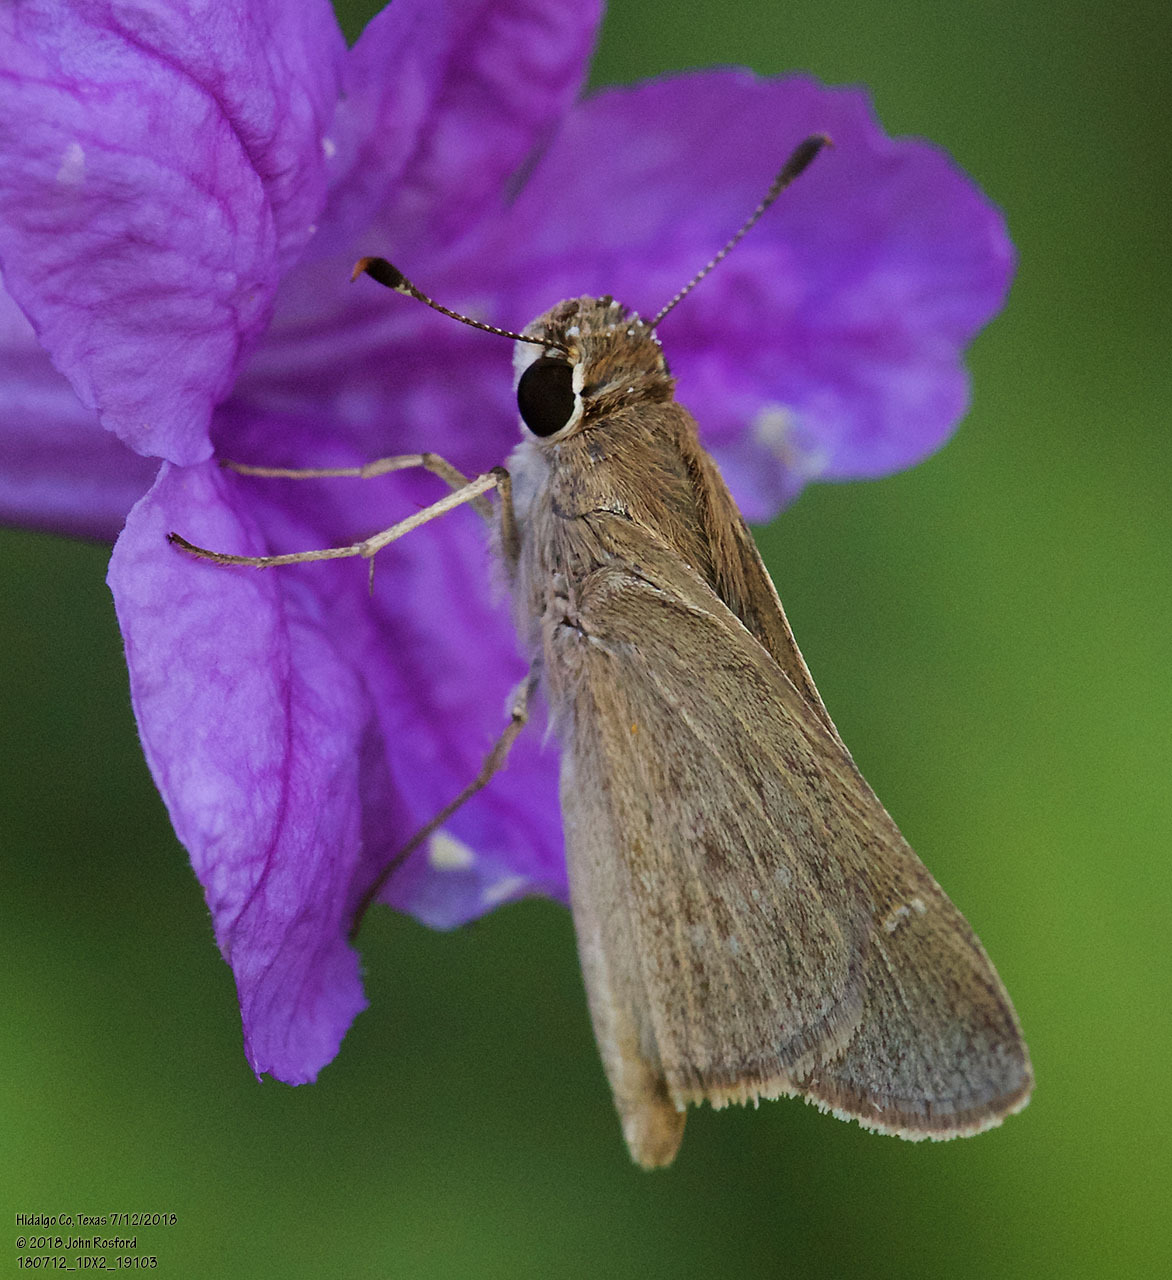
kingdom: Animalia
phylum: Arthropoda
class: Insecta
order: Lepidoptera
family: Hesperiidae
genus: Lerodea
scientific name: Lerodea eufala
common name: Eufala skipper
